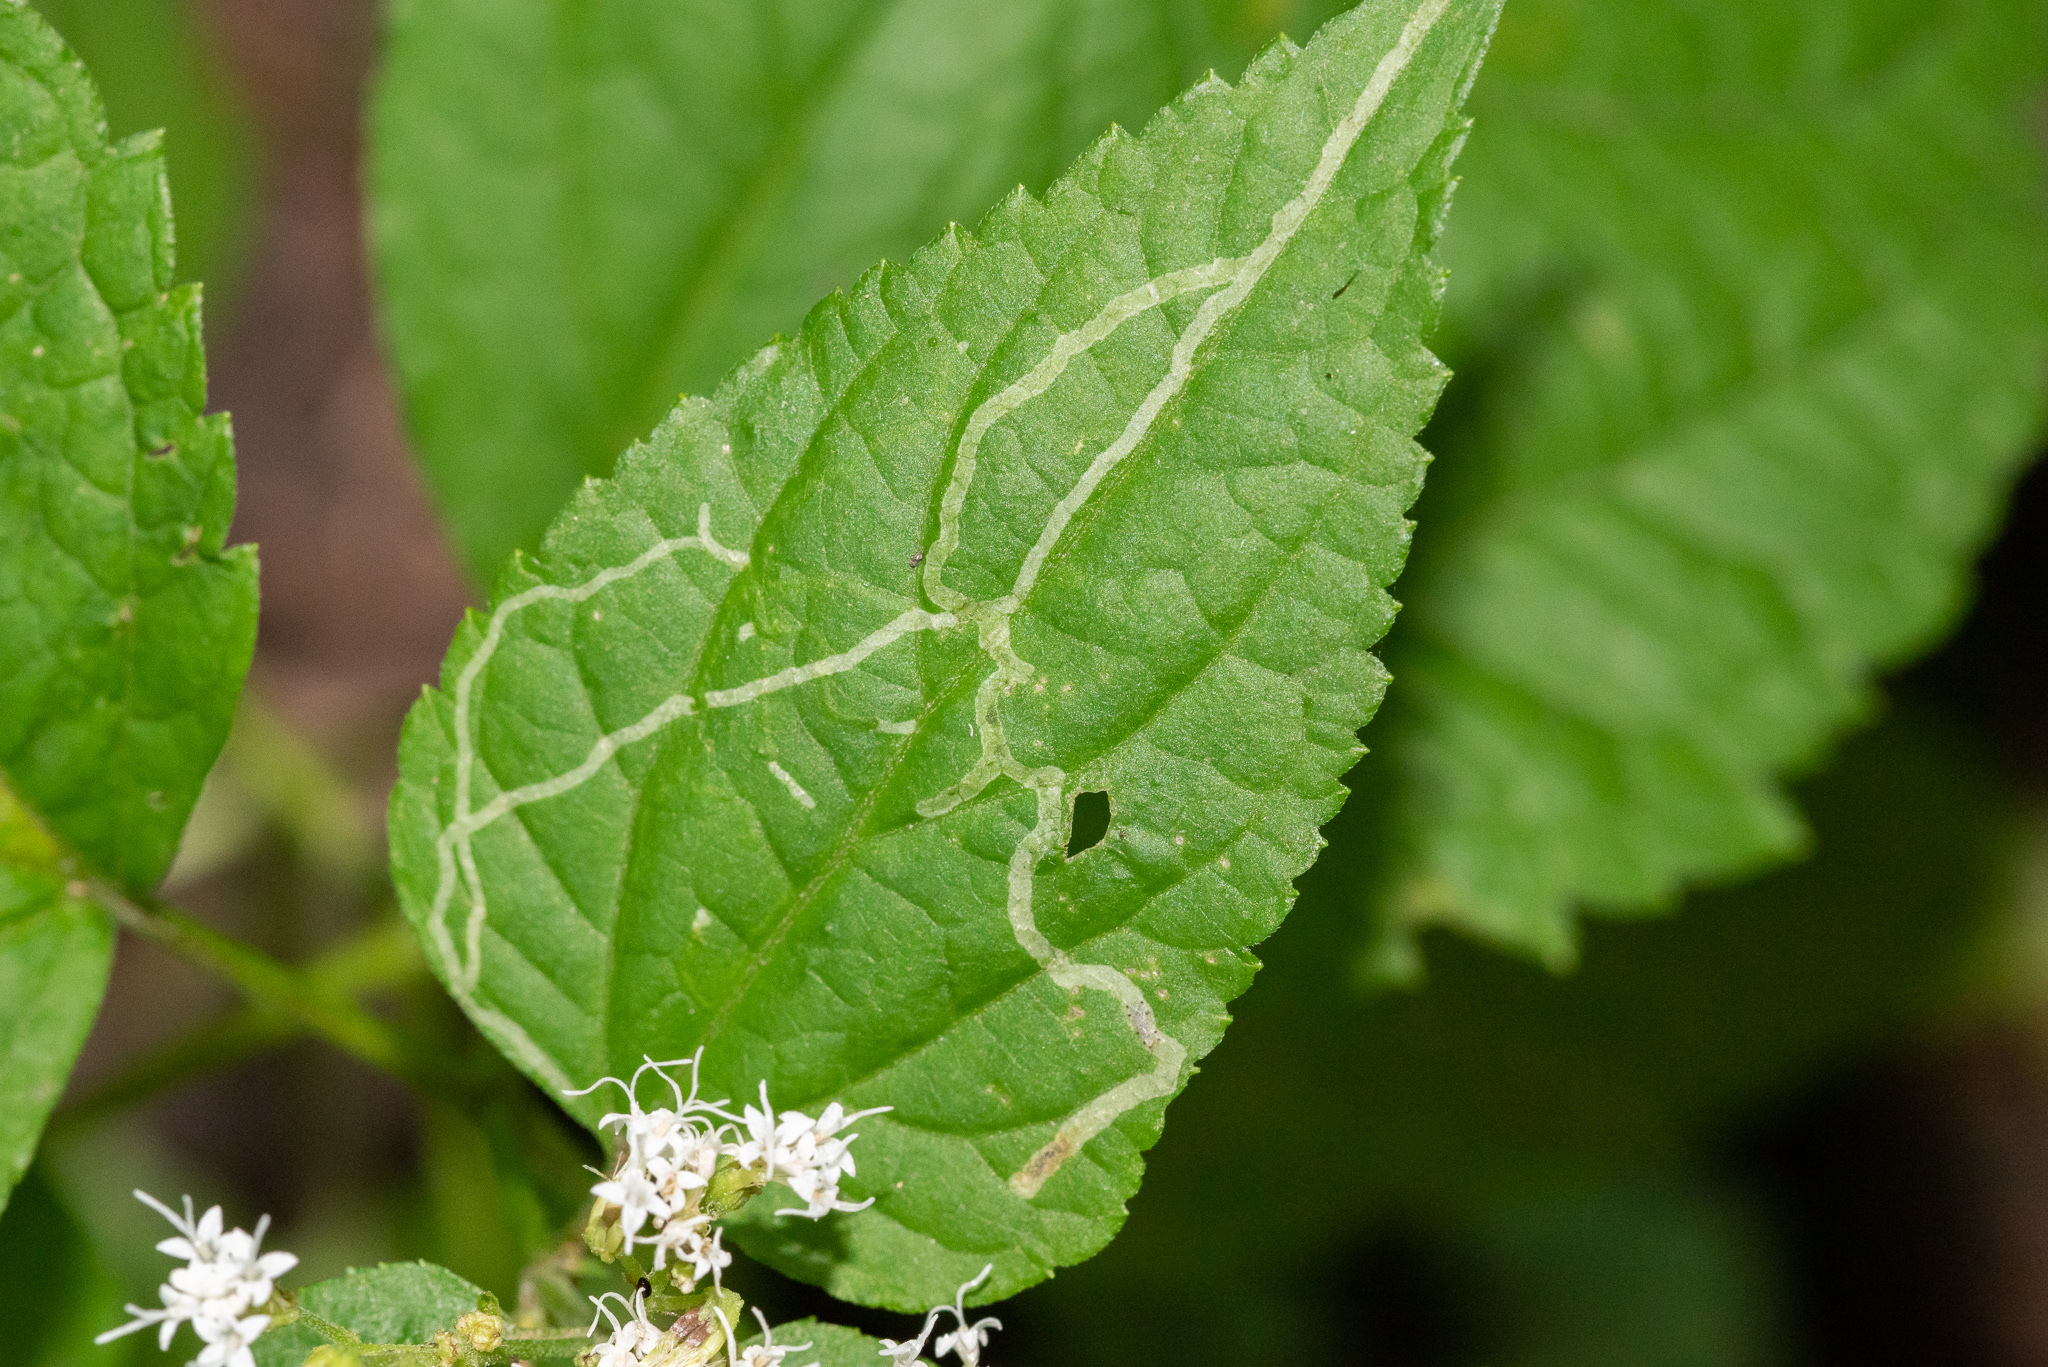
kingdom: Animalia
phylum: Arthropoda
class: Insecta
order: Diptera
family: Agromyzidae
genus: Liriomyza
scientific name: Liriomyza
